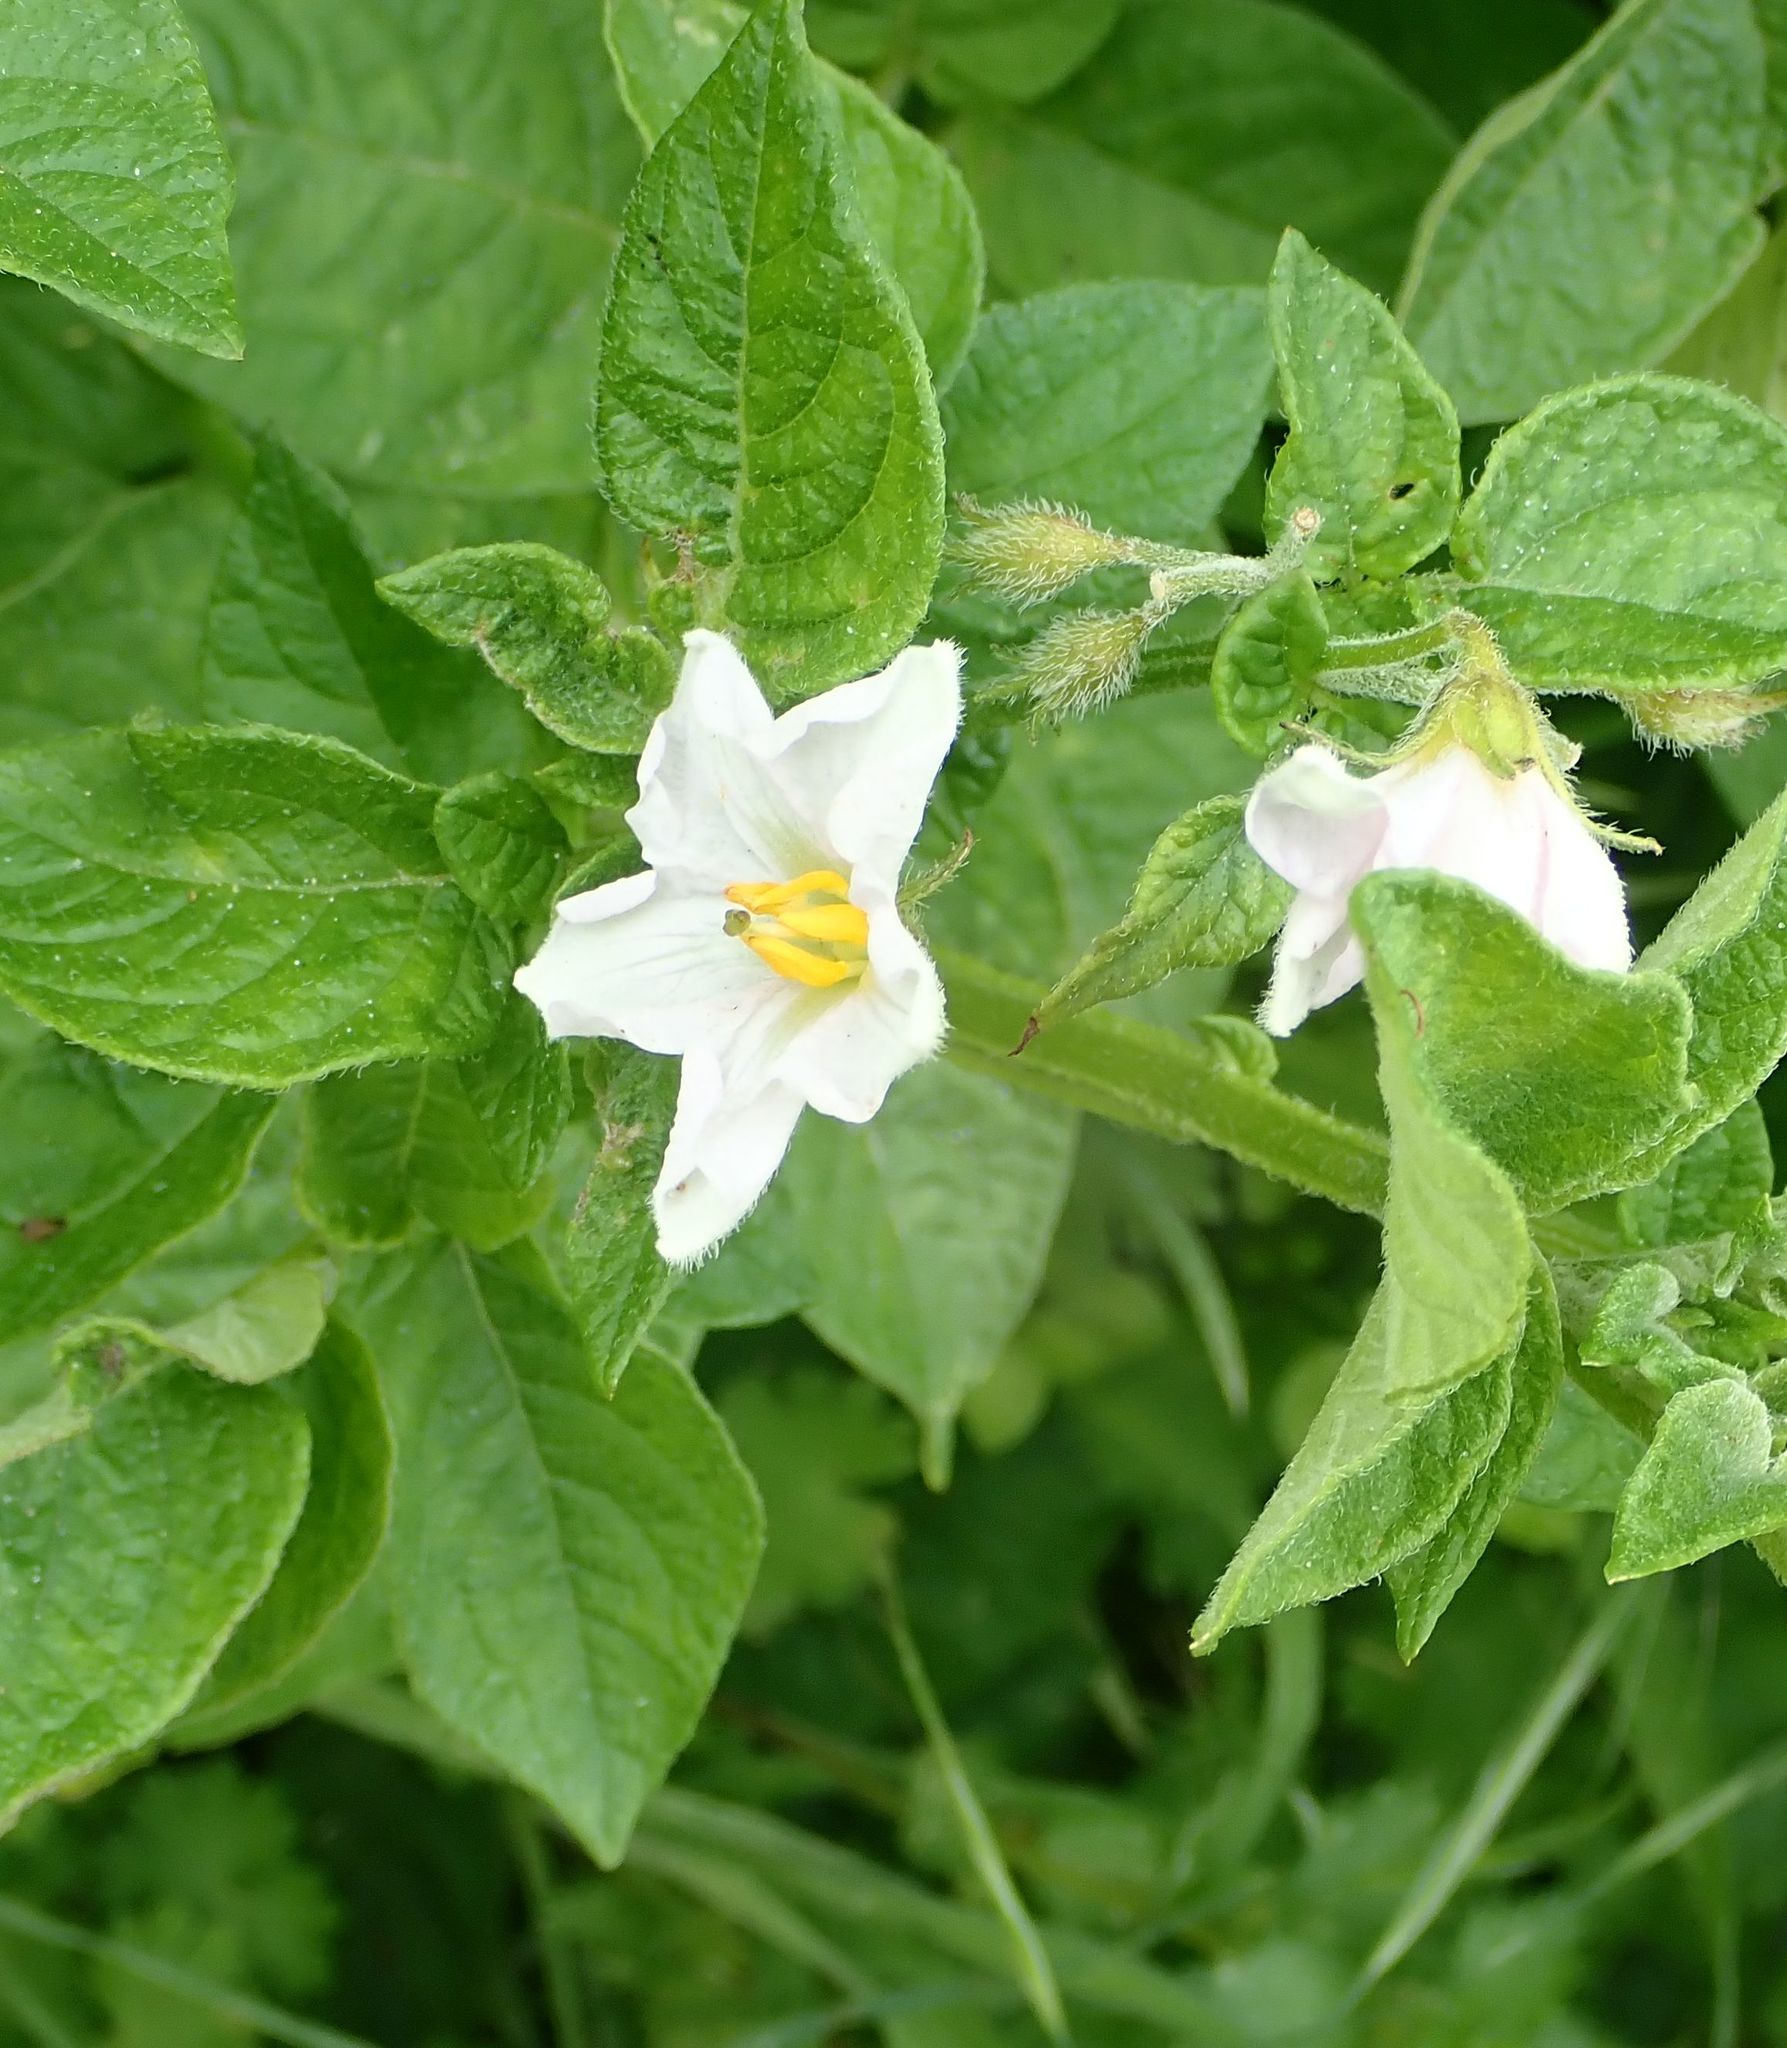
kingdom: Plantae
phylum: Tracheophyta
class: Magnoliopsida
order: Solanales
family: Solanaceae
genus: Solanum
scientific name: Solanum tuberosum
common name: Potato
